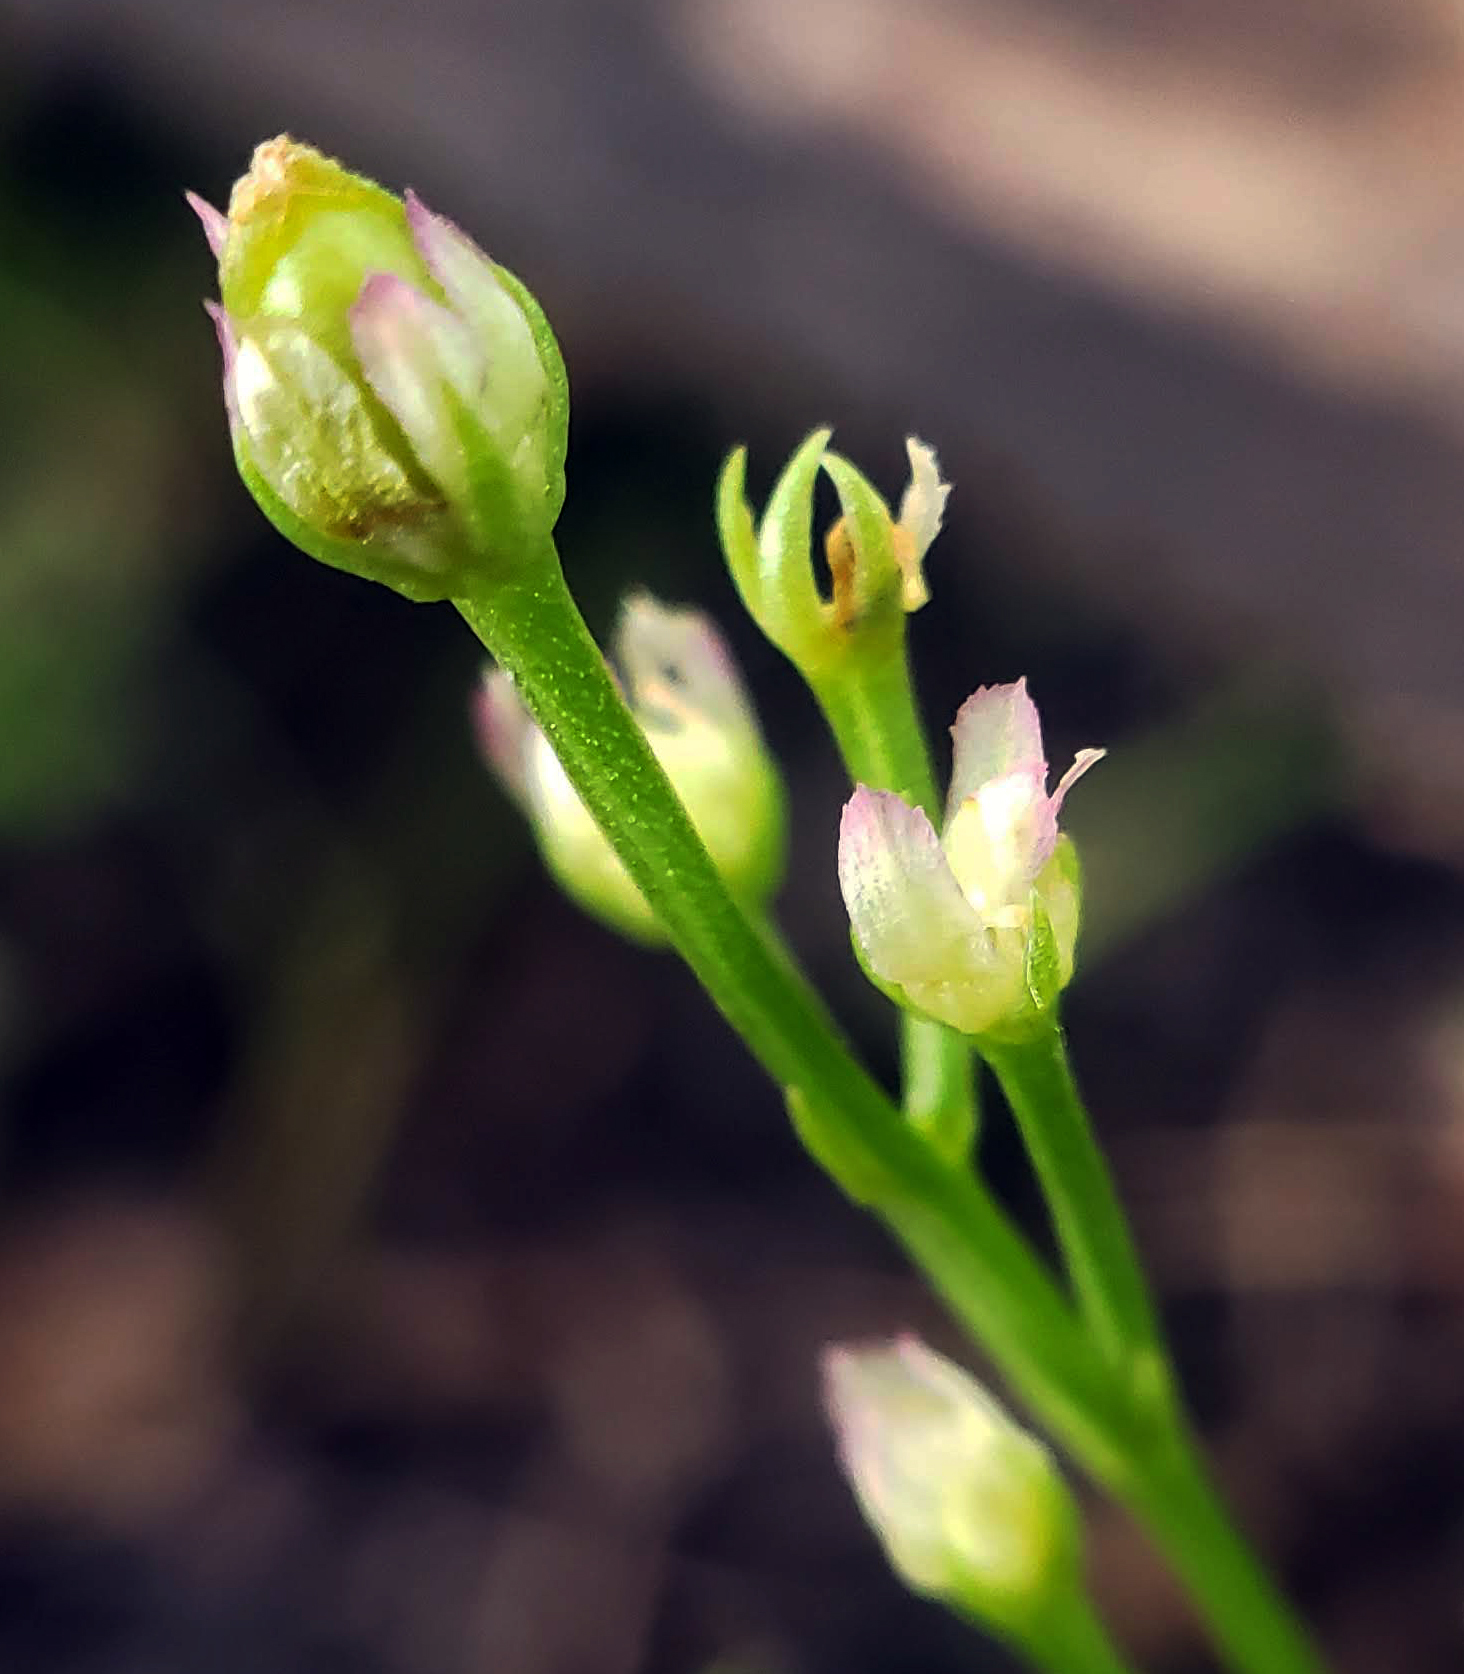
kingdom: Plantae
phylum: Tracheophyta
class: Magnoliopsida
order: Gentianales
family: Gentianaceae
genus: Bartonia
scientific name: Bartonia virginica
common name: Yellow bartonia
